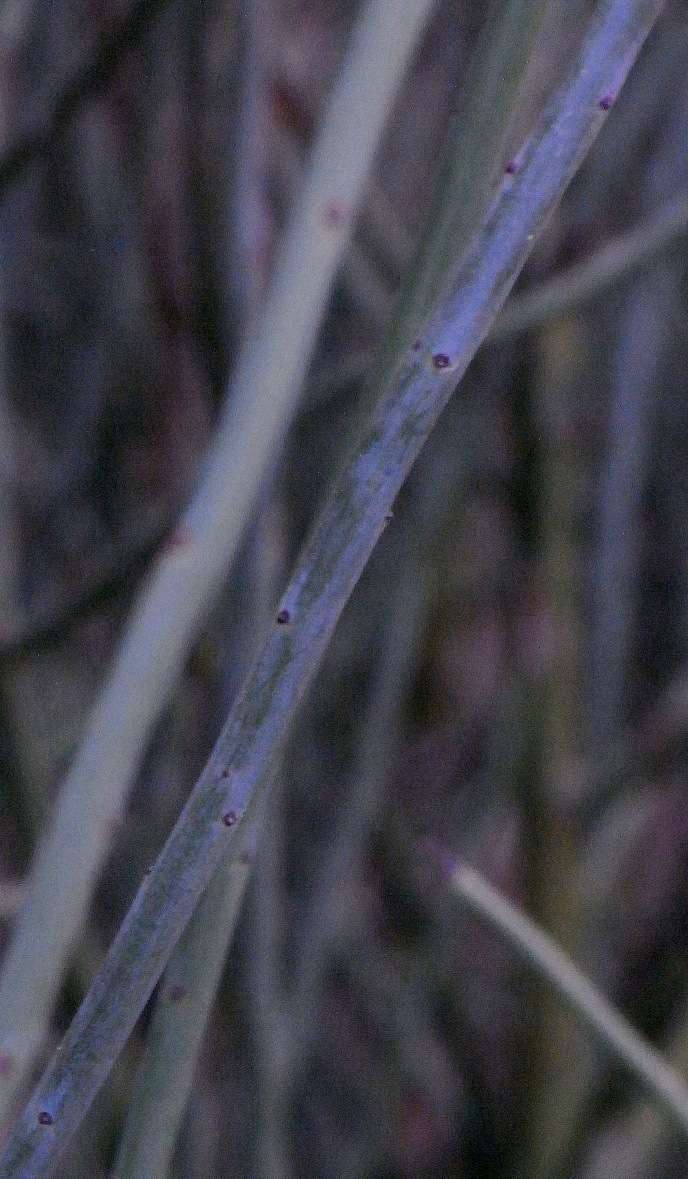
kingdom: Plantae
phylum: Tracheophyta
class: Magnoliopsida
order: Santalales
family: Amphorogynaceae
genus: Leptomeria
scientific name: Leptomeria aphylla
